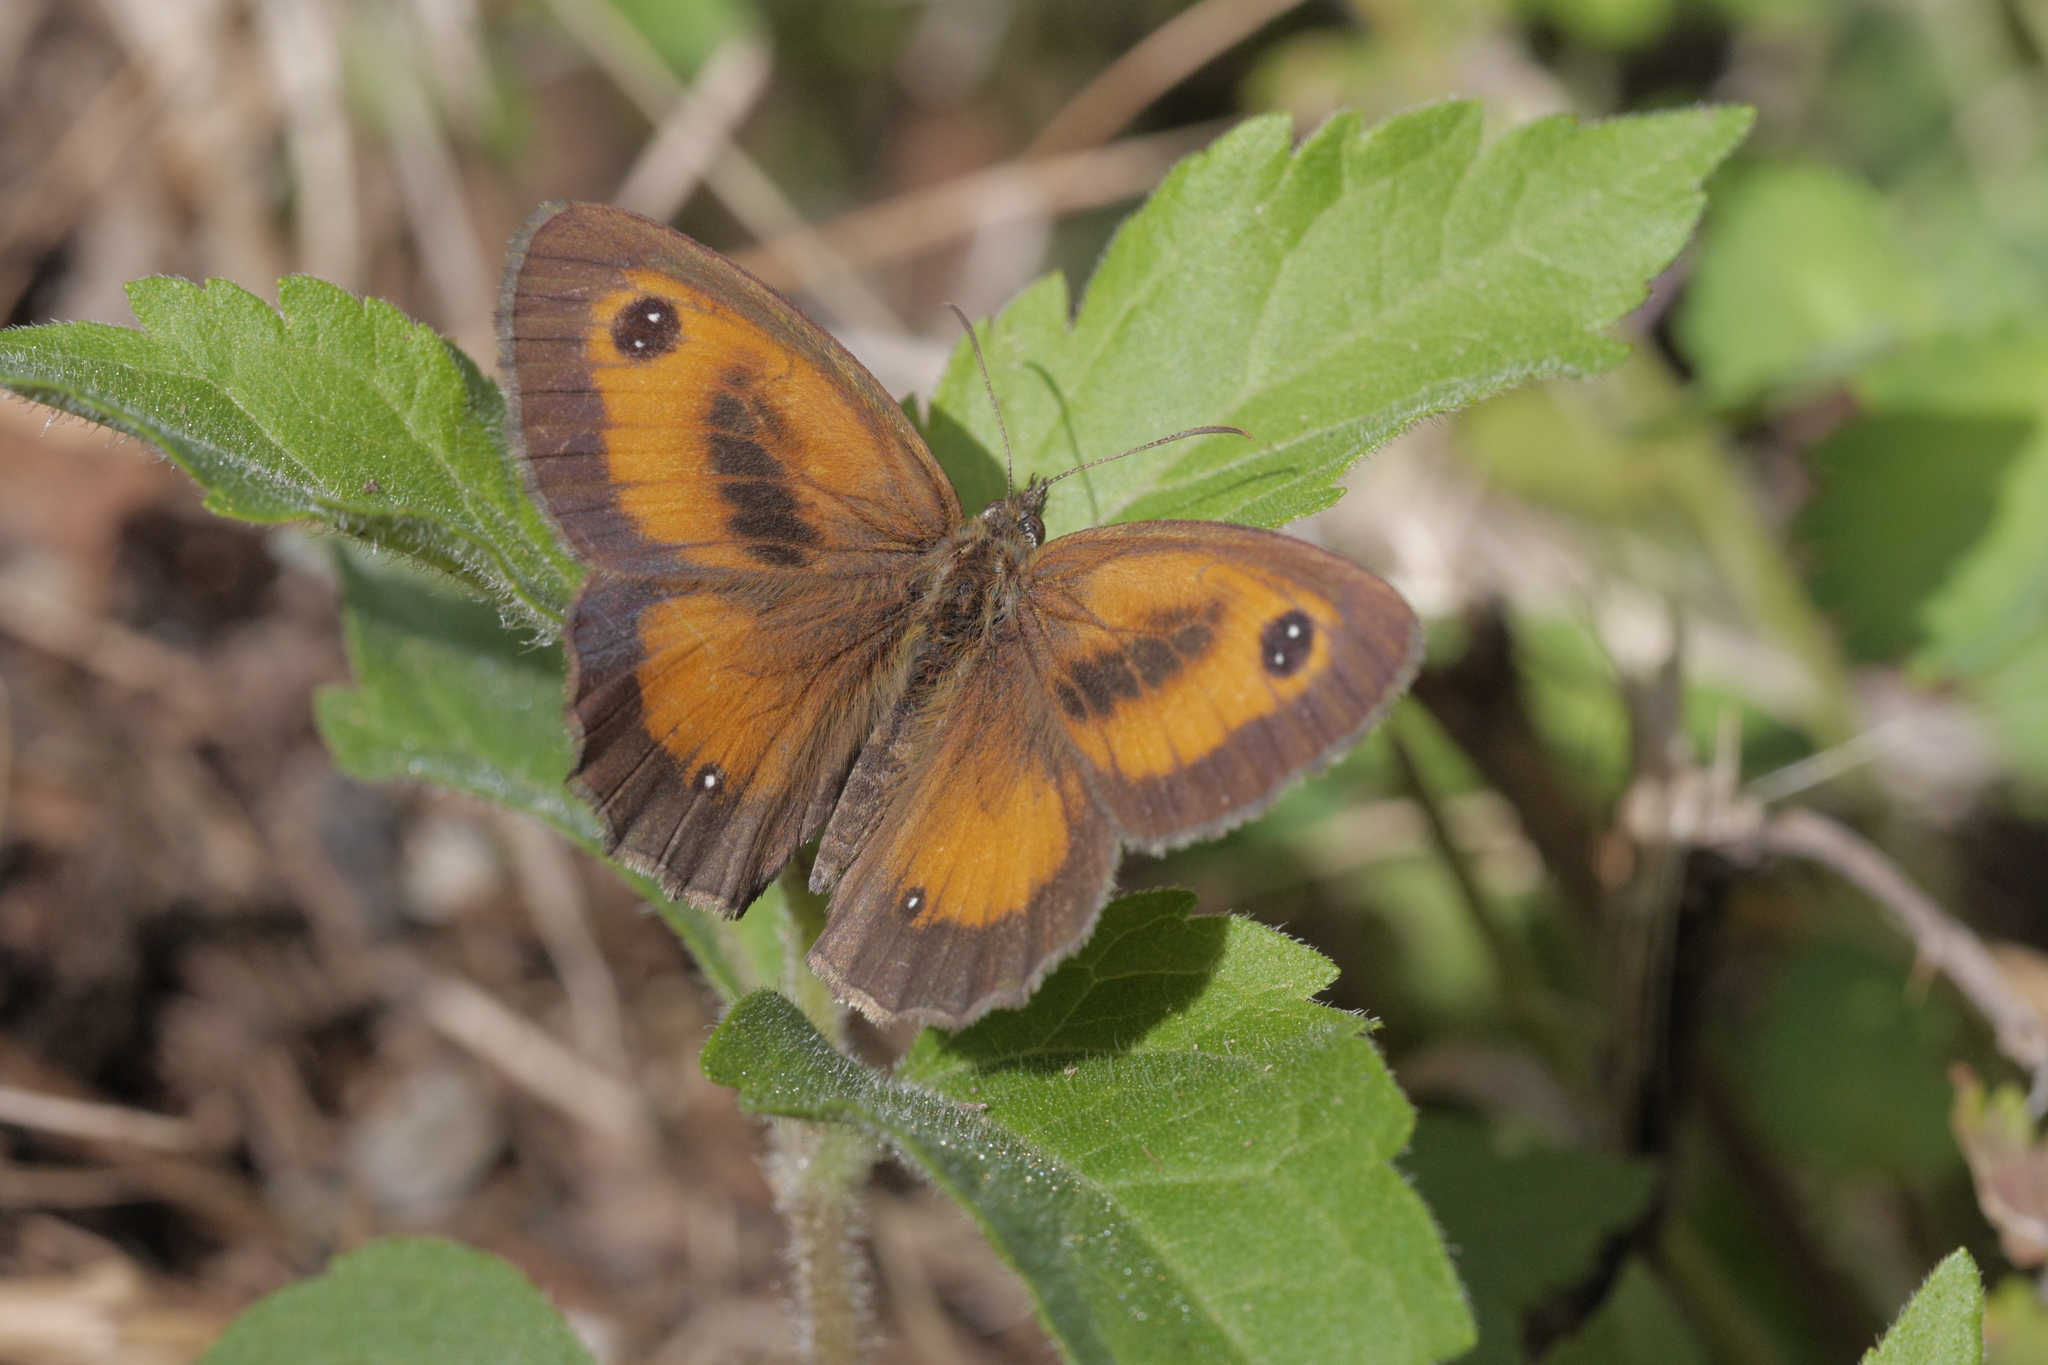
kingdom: Animalia
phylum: Arthropoda
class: Insecta
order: Lepidoptera
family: Nymphalidae
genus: Pyronia
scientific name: Pyronia tithonus
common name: Gatekeeper
